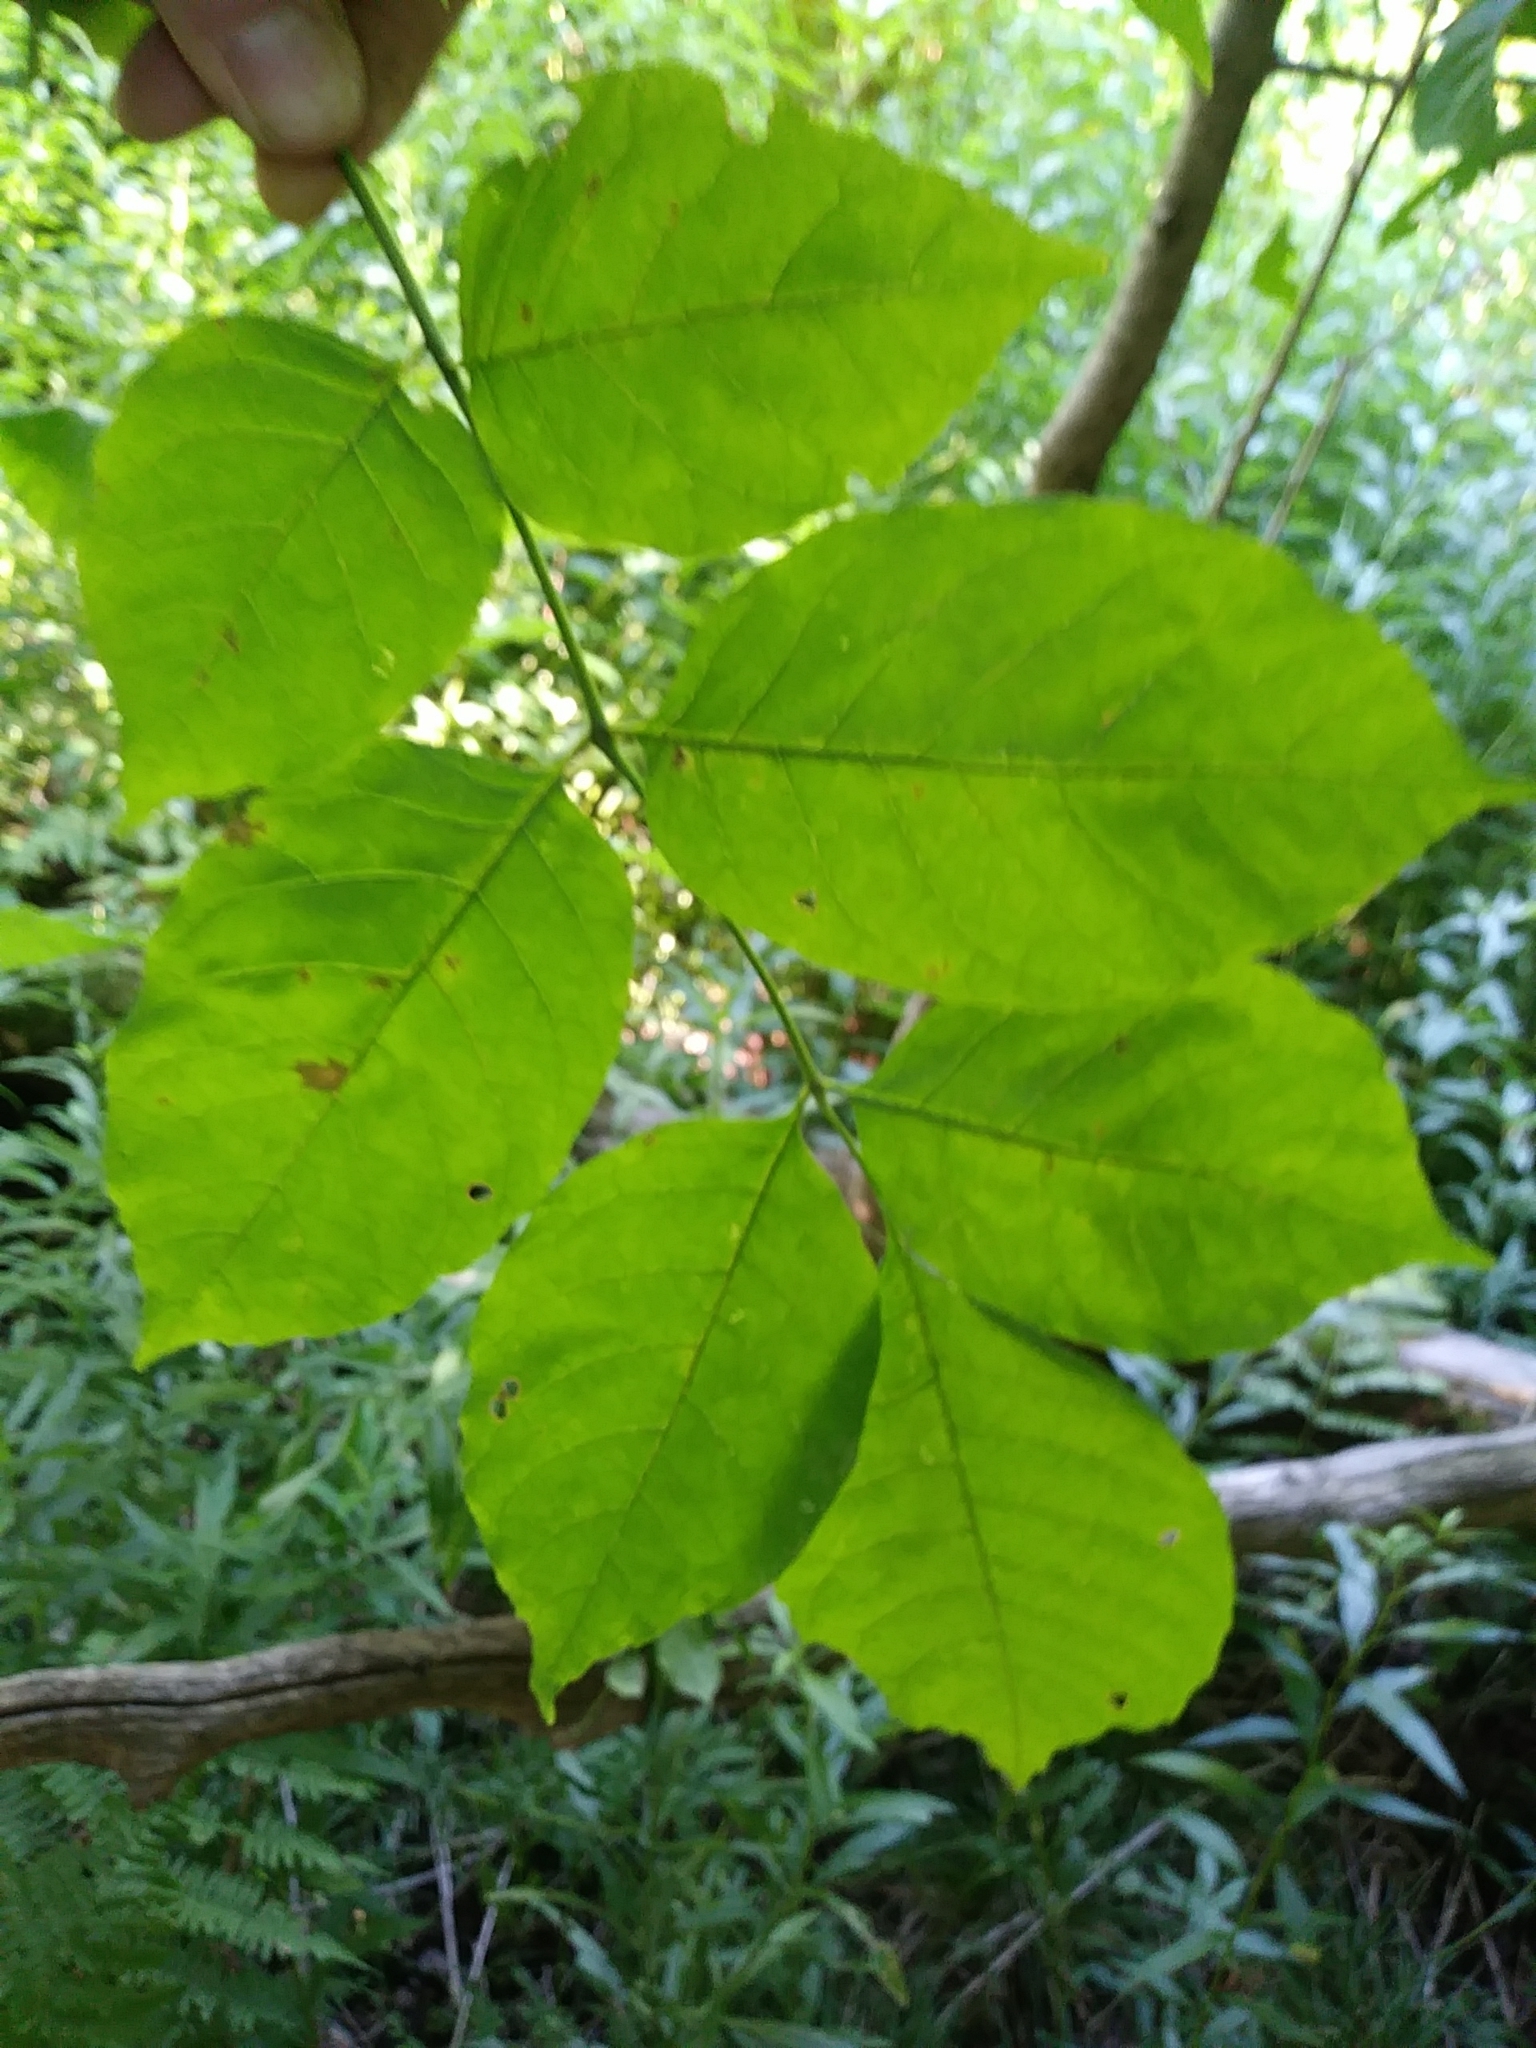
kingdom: Plantae
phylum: Tracheophyta
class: Magnoliopsida
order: Lamiales
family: Oleaceae
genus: Fraxinus
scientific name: Fraxinus americana
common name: White ash
